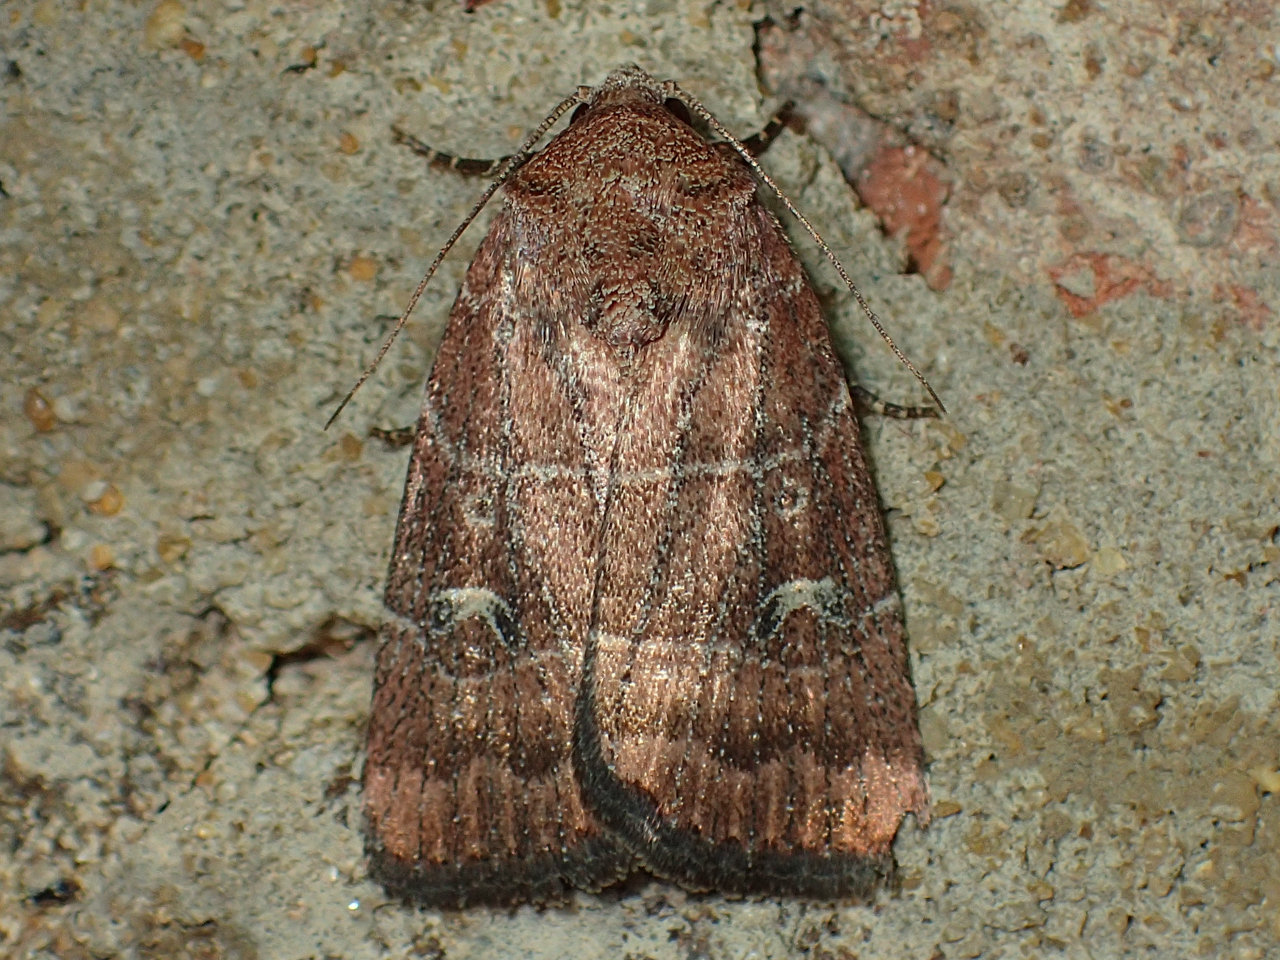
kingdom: Animalia
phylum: Arthropoda
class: Insecta
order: Lepidoptera
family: Noctuidae
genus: Elaphria
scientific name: Elaphria grata
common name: Grateful midget moth
